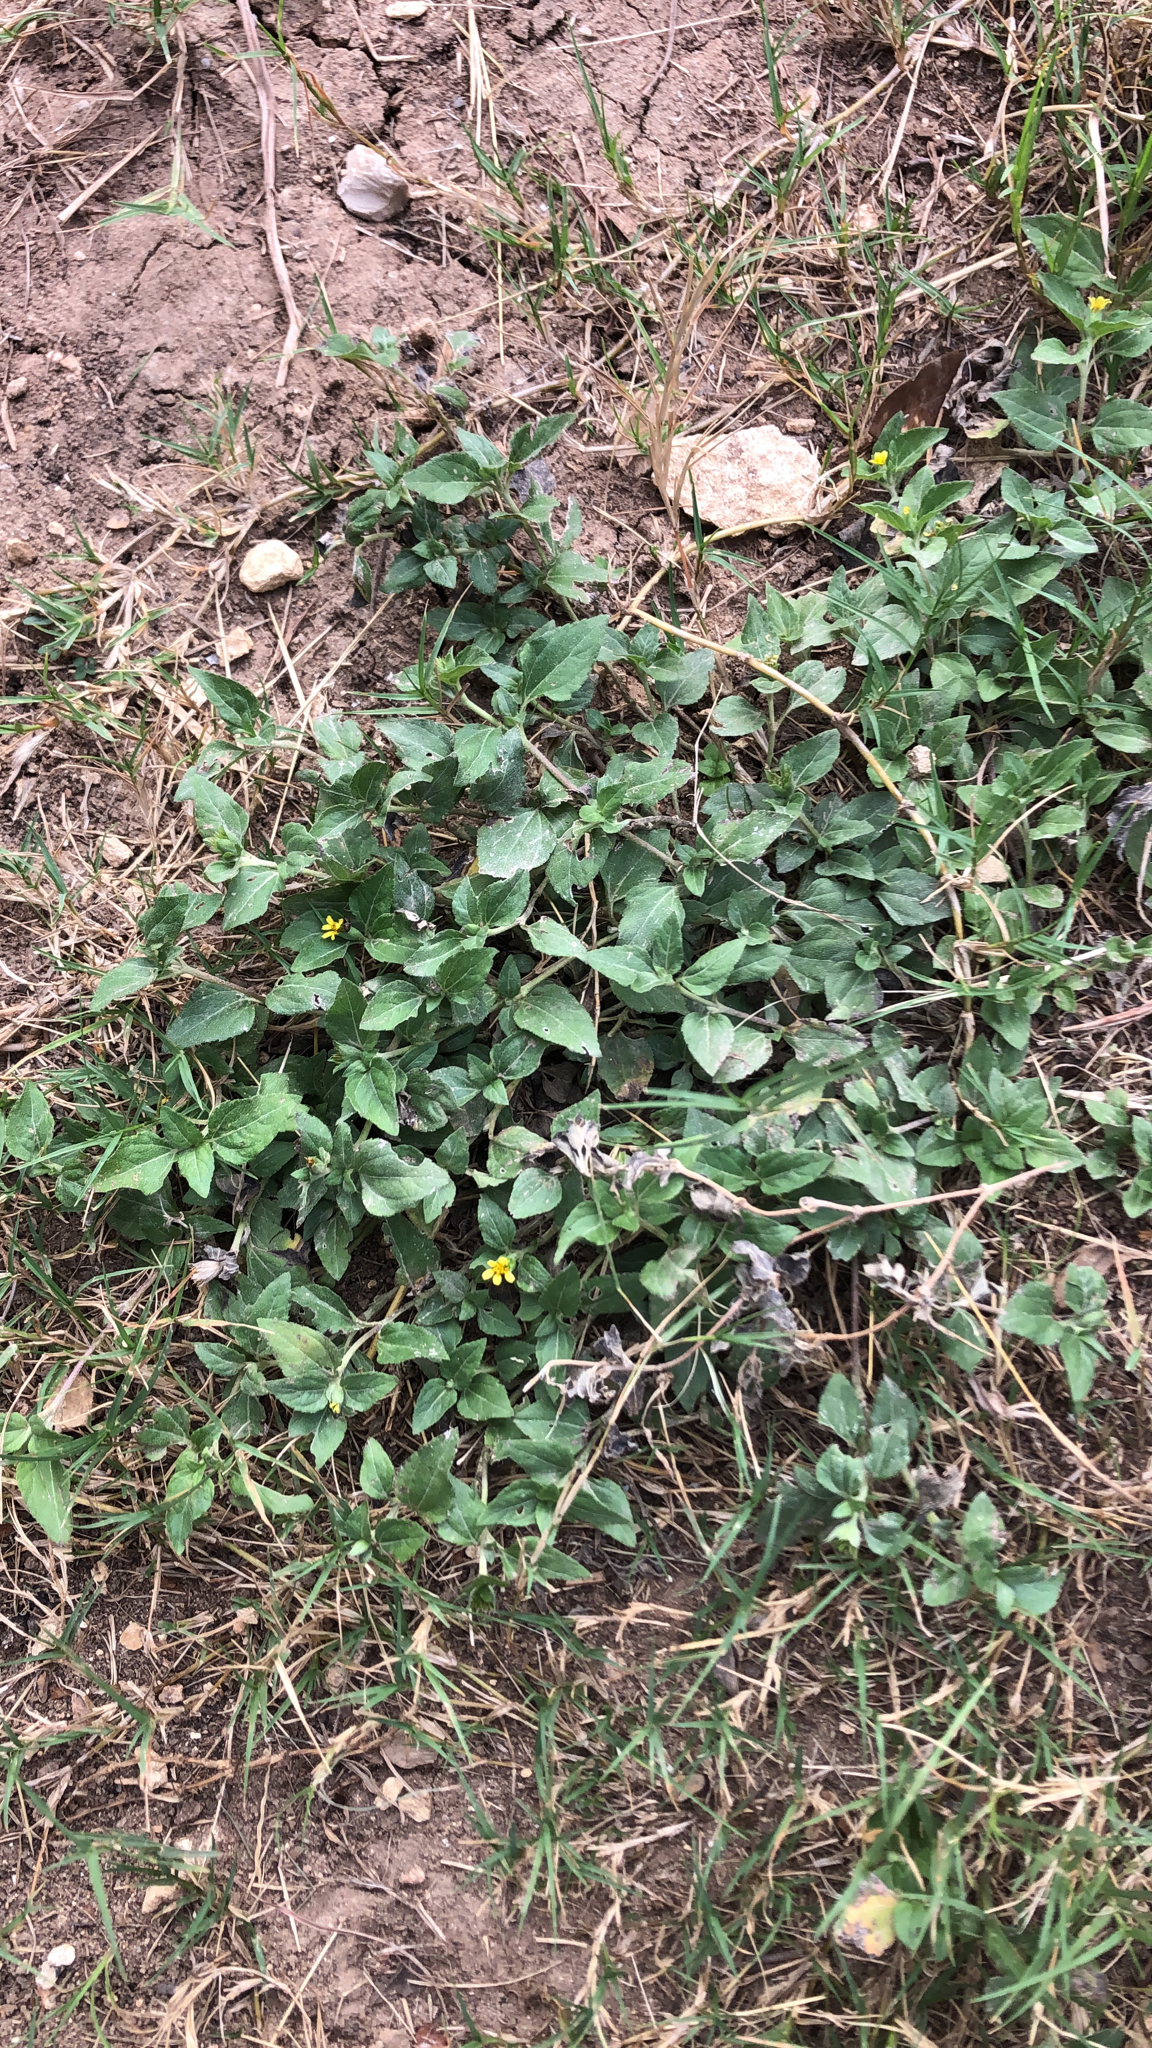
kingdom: Plantae
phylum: Tracheophyta
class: Magnoliopsida
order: Asterales
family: Asteraceae
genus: Calyptocarpus
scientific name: Calyptocarpus vialis
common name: Straggler daisy
